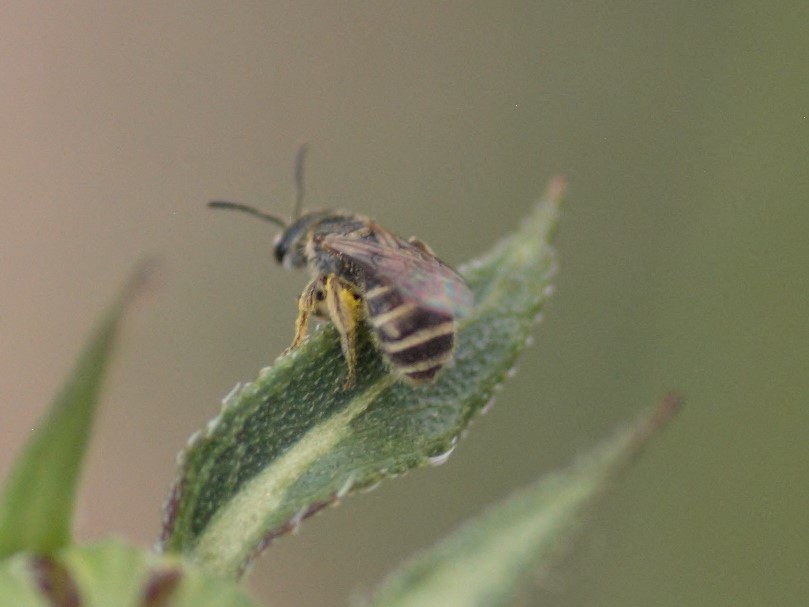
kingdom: Animalia
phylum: Arthropoda
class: Insecta
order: Hymenoptera
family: Halictidae
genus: Halictus
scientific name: Halictus ligatus
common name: Ligated furrow bee
